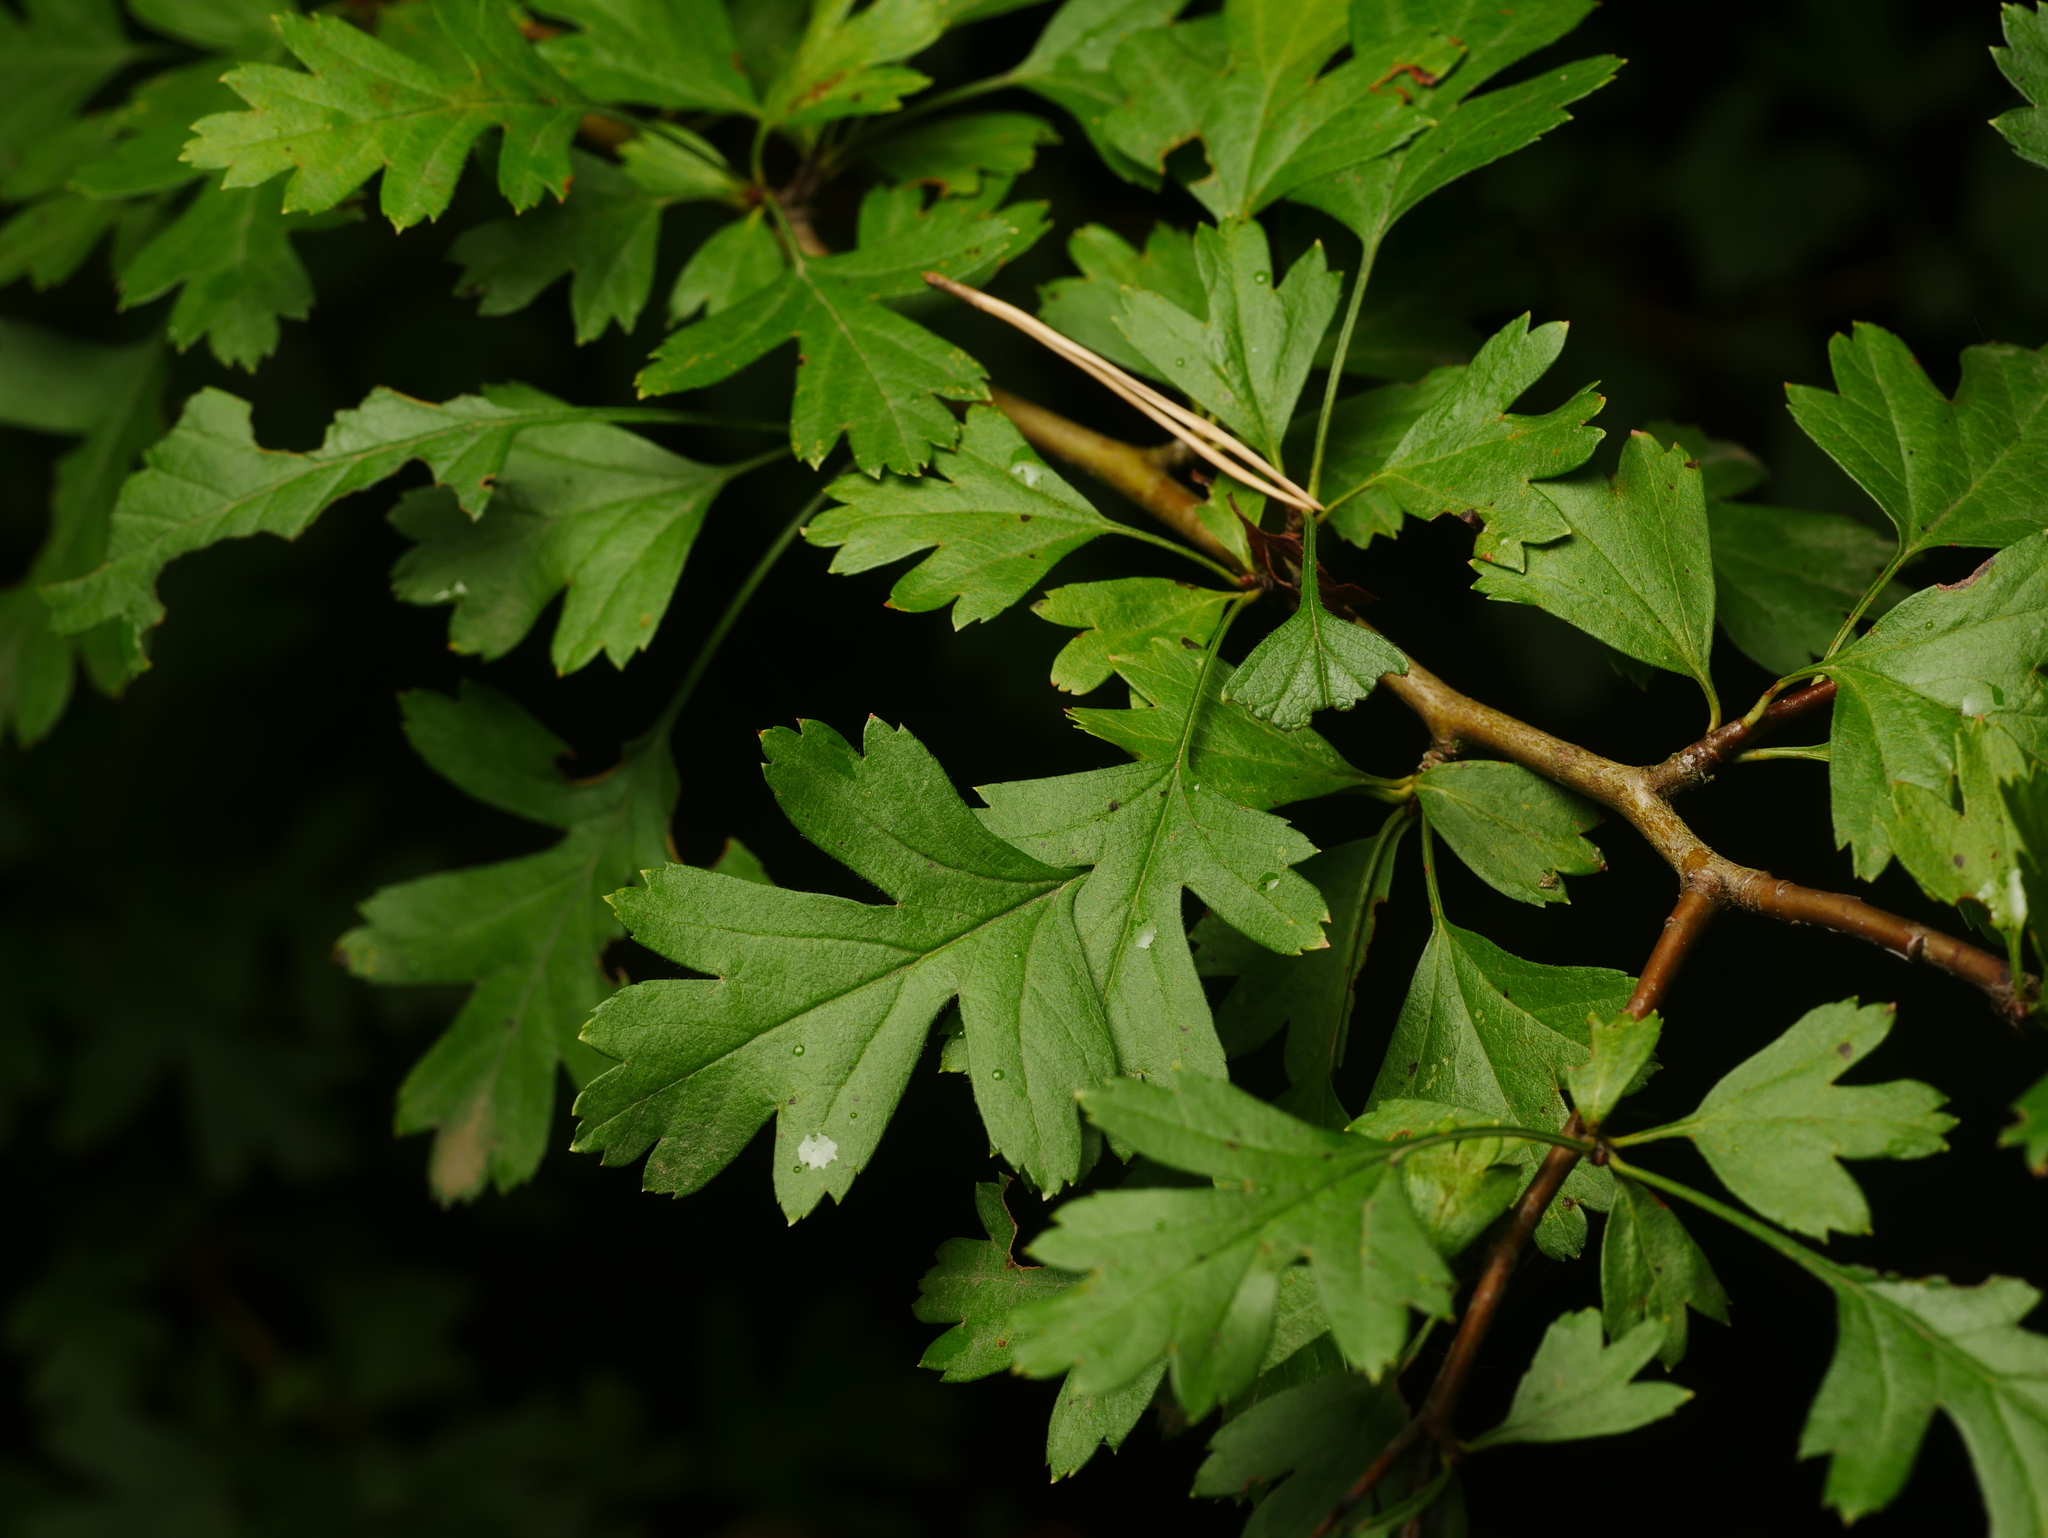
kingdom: Plantae
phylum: Tracheophyta
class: Magnoliopsida
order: Rosales
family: Rosaceae
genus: Crataegus
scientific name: Crataegus monogyna
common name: Hawthorn
